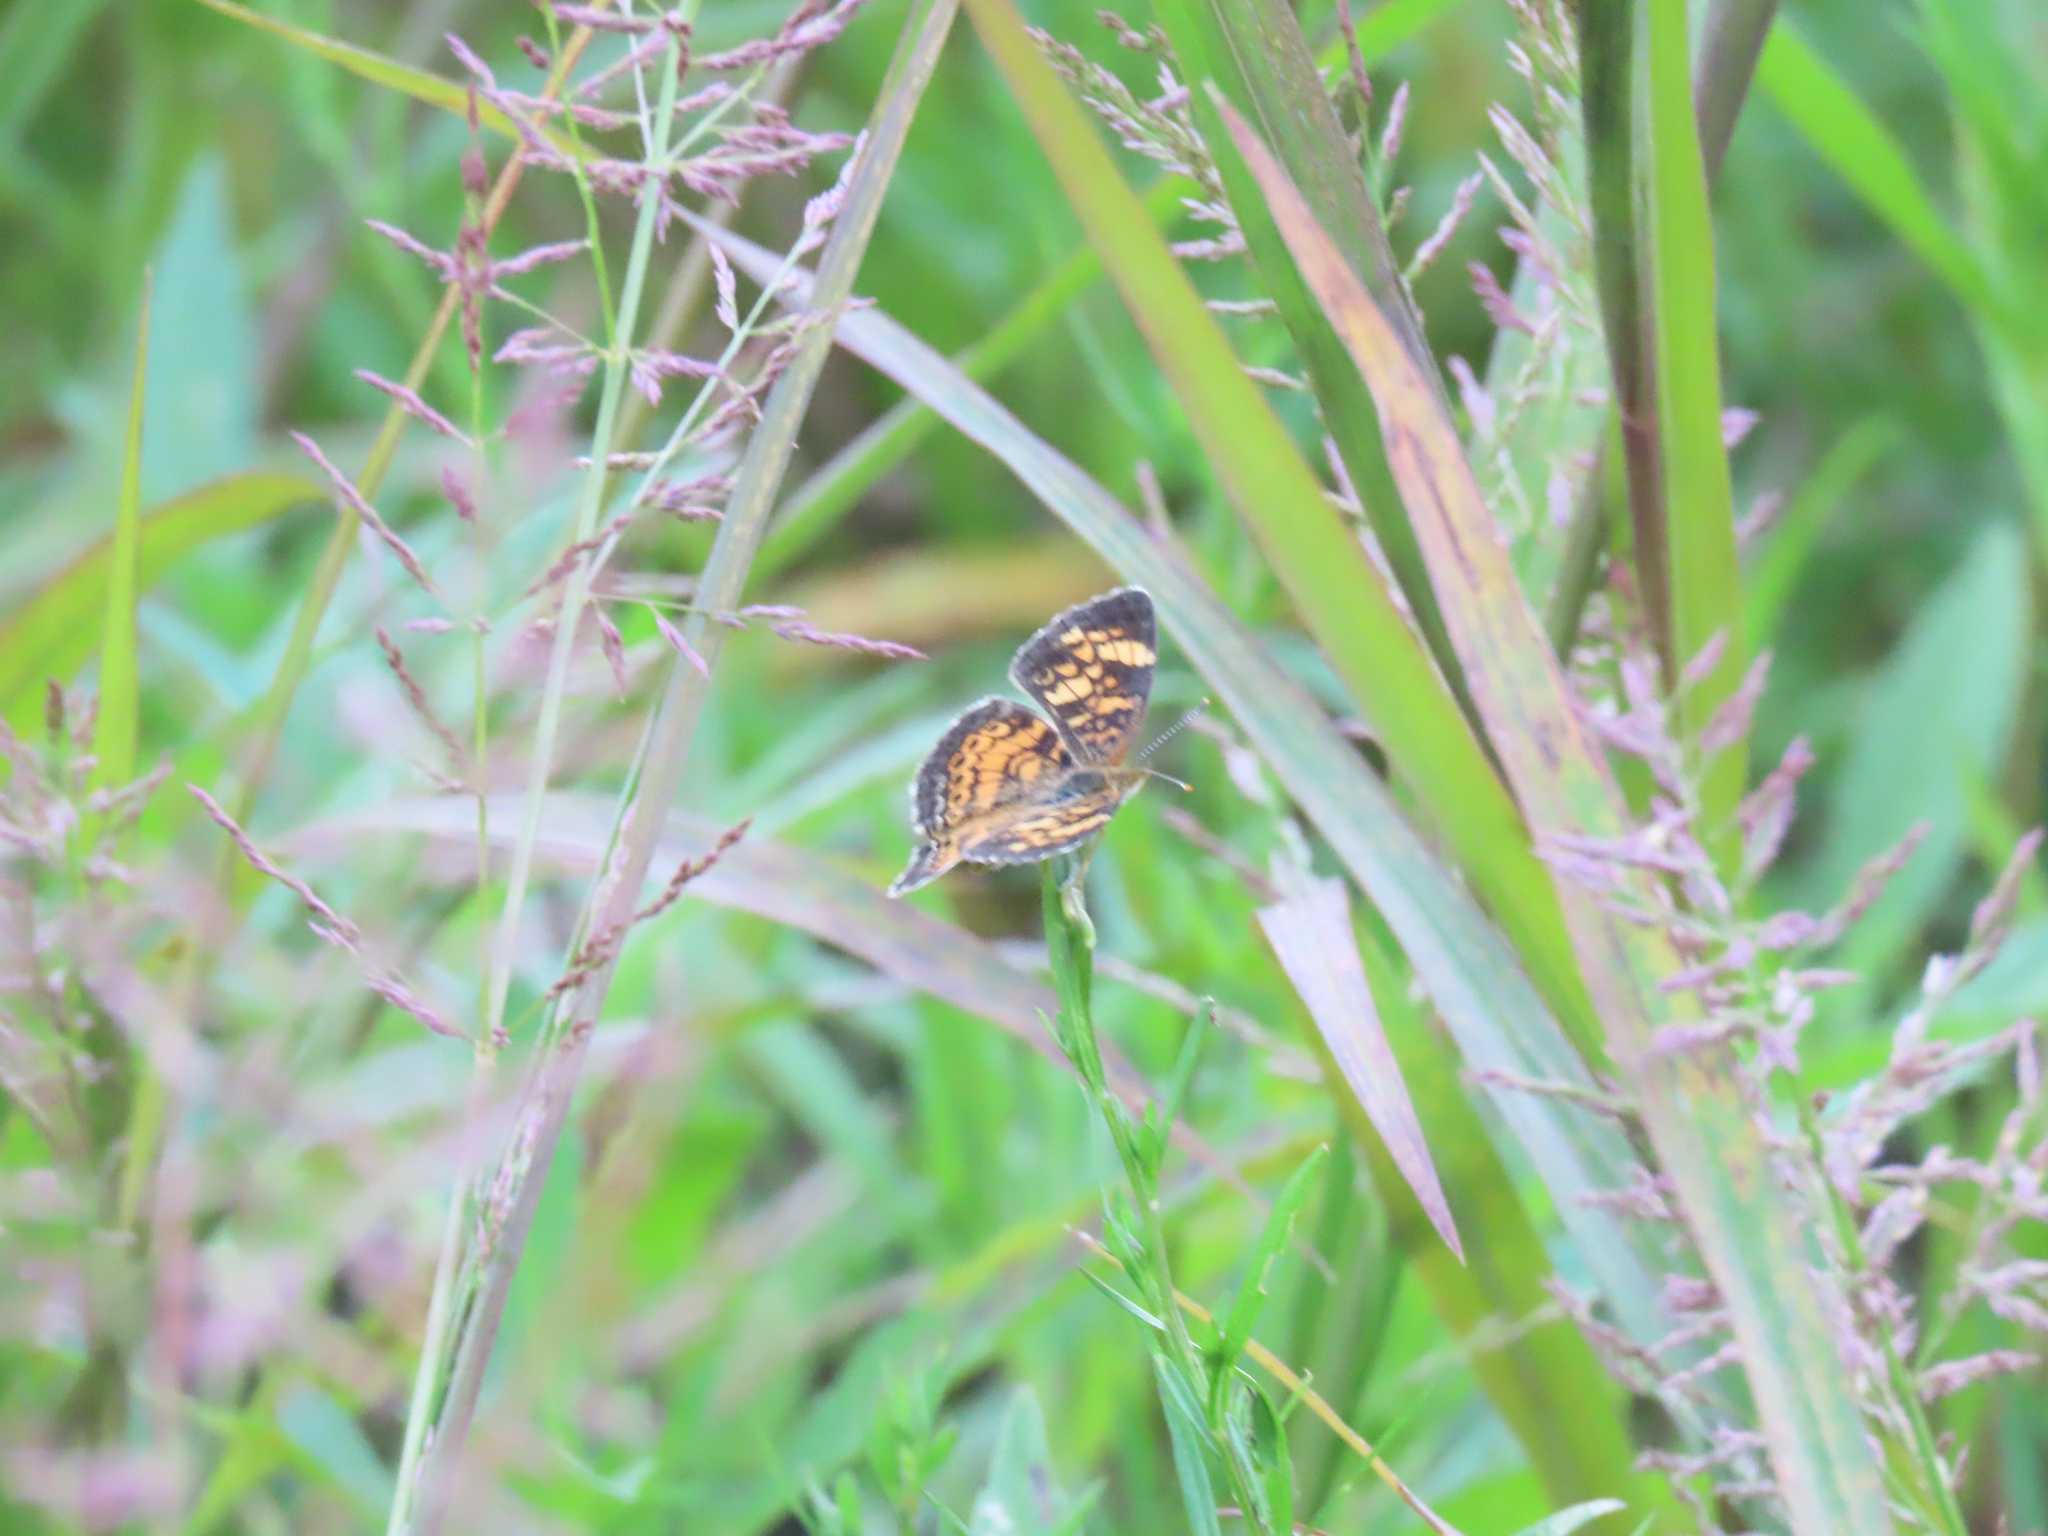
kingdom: Animalia
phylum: Arthropoda
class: Insecta
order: Lepidoptera
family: Nymphalidae
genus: Phyciodes
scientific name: Phyciodes tharos
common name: Pearl crescent
